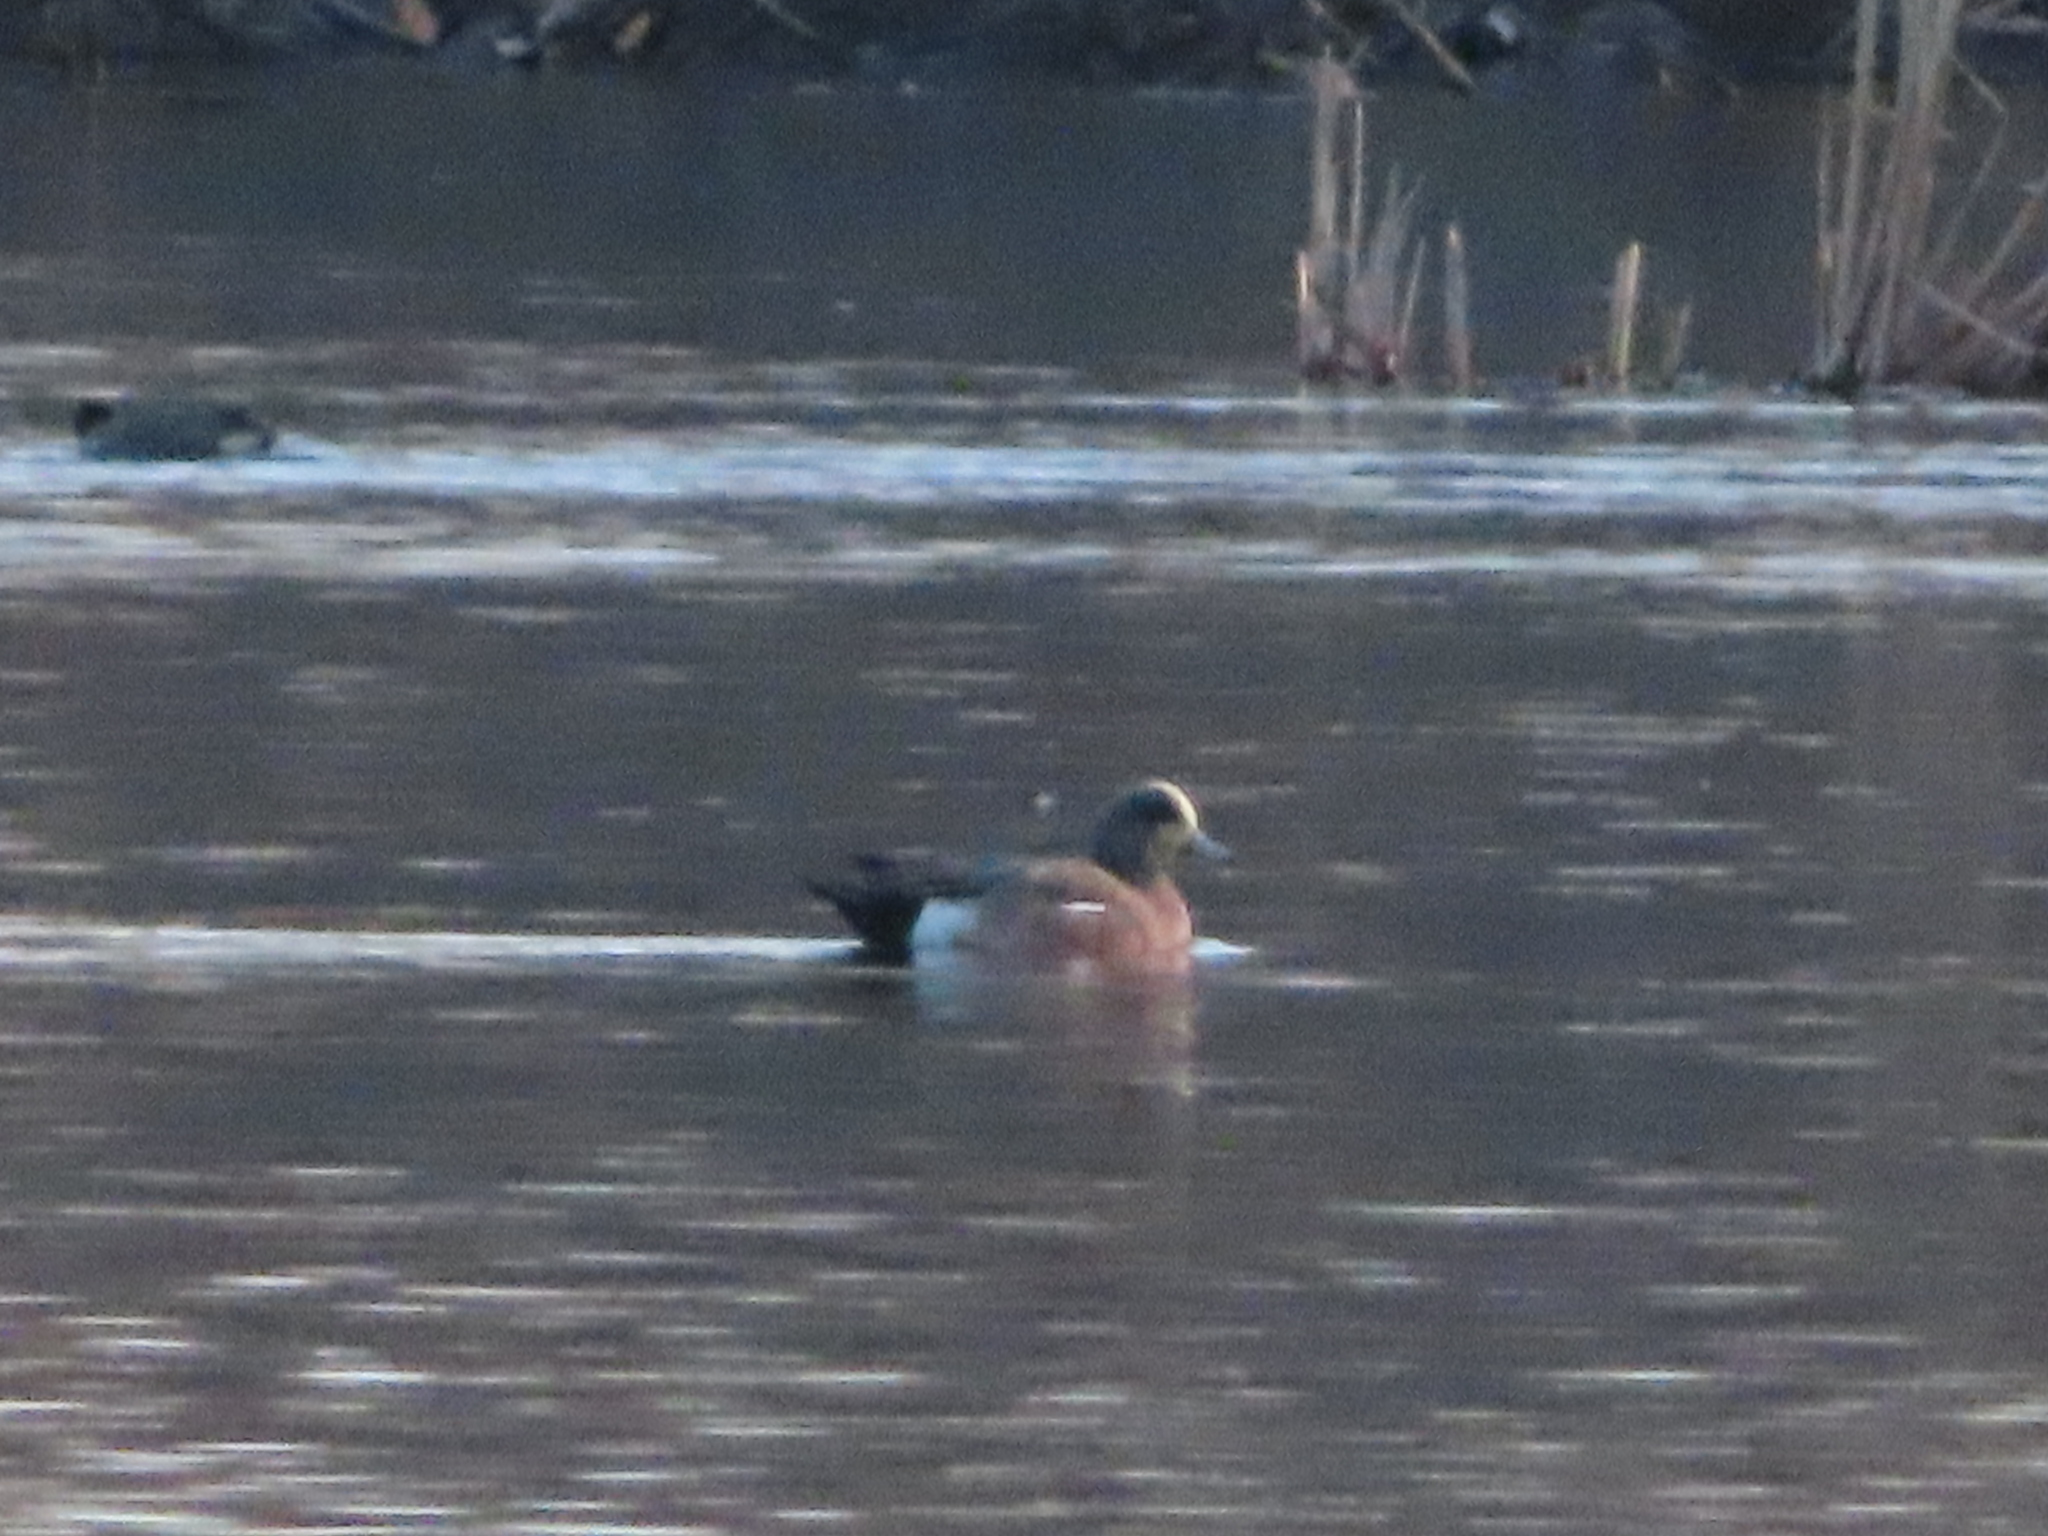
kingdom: Animalia
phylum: Chordata
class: Aves
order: Anseriformes
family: Anatidae
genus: Mareca
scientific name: Mareca americana
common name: American wigeon
